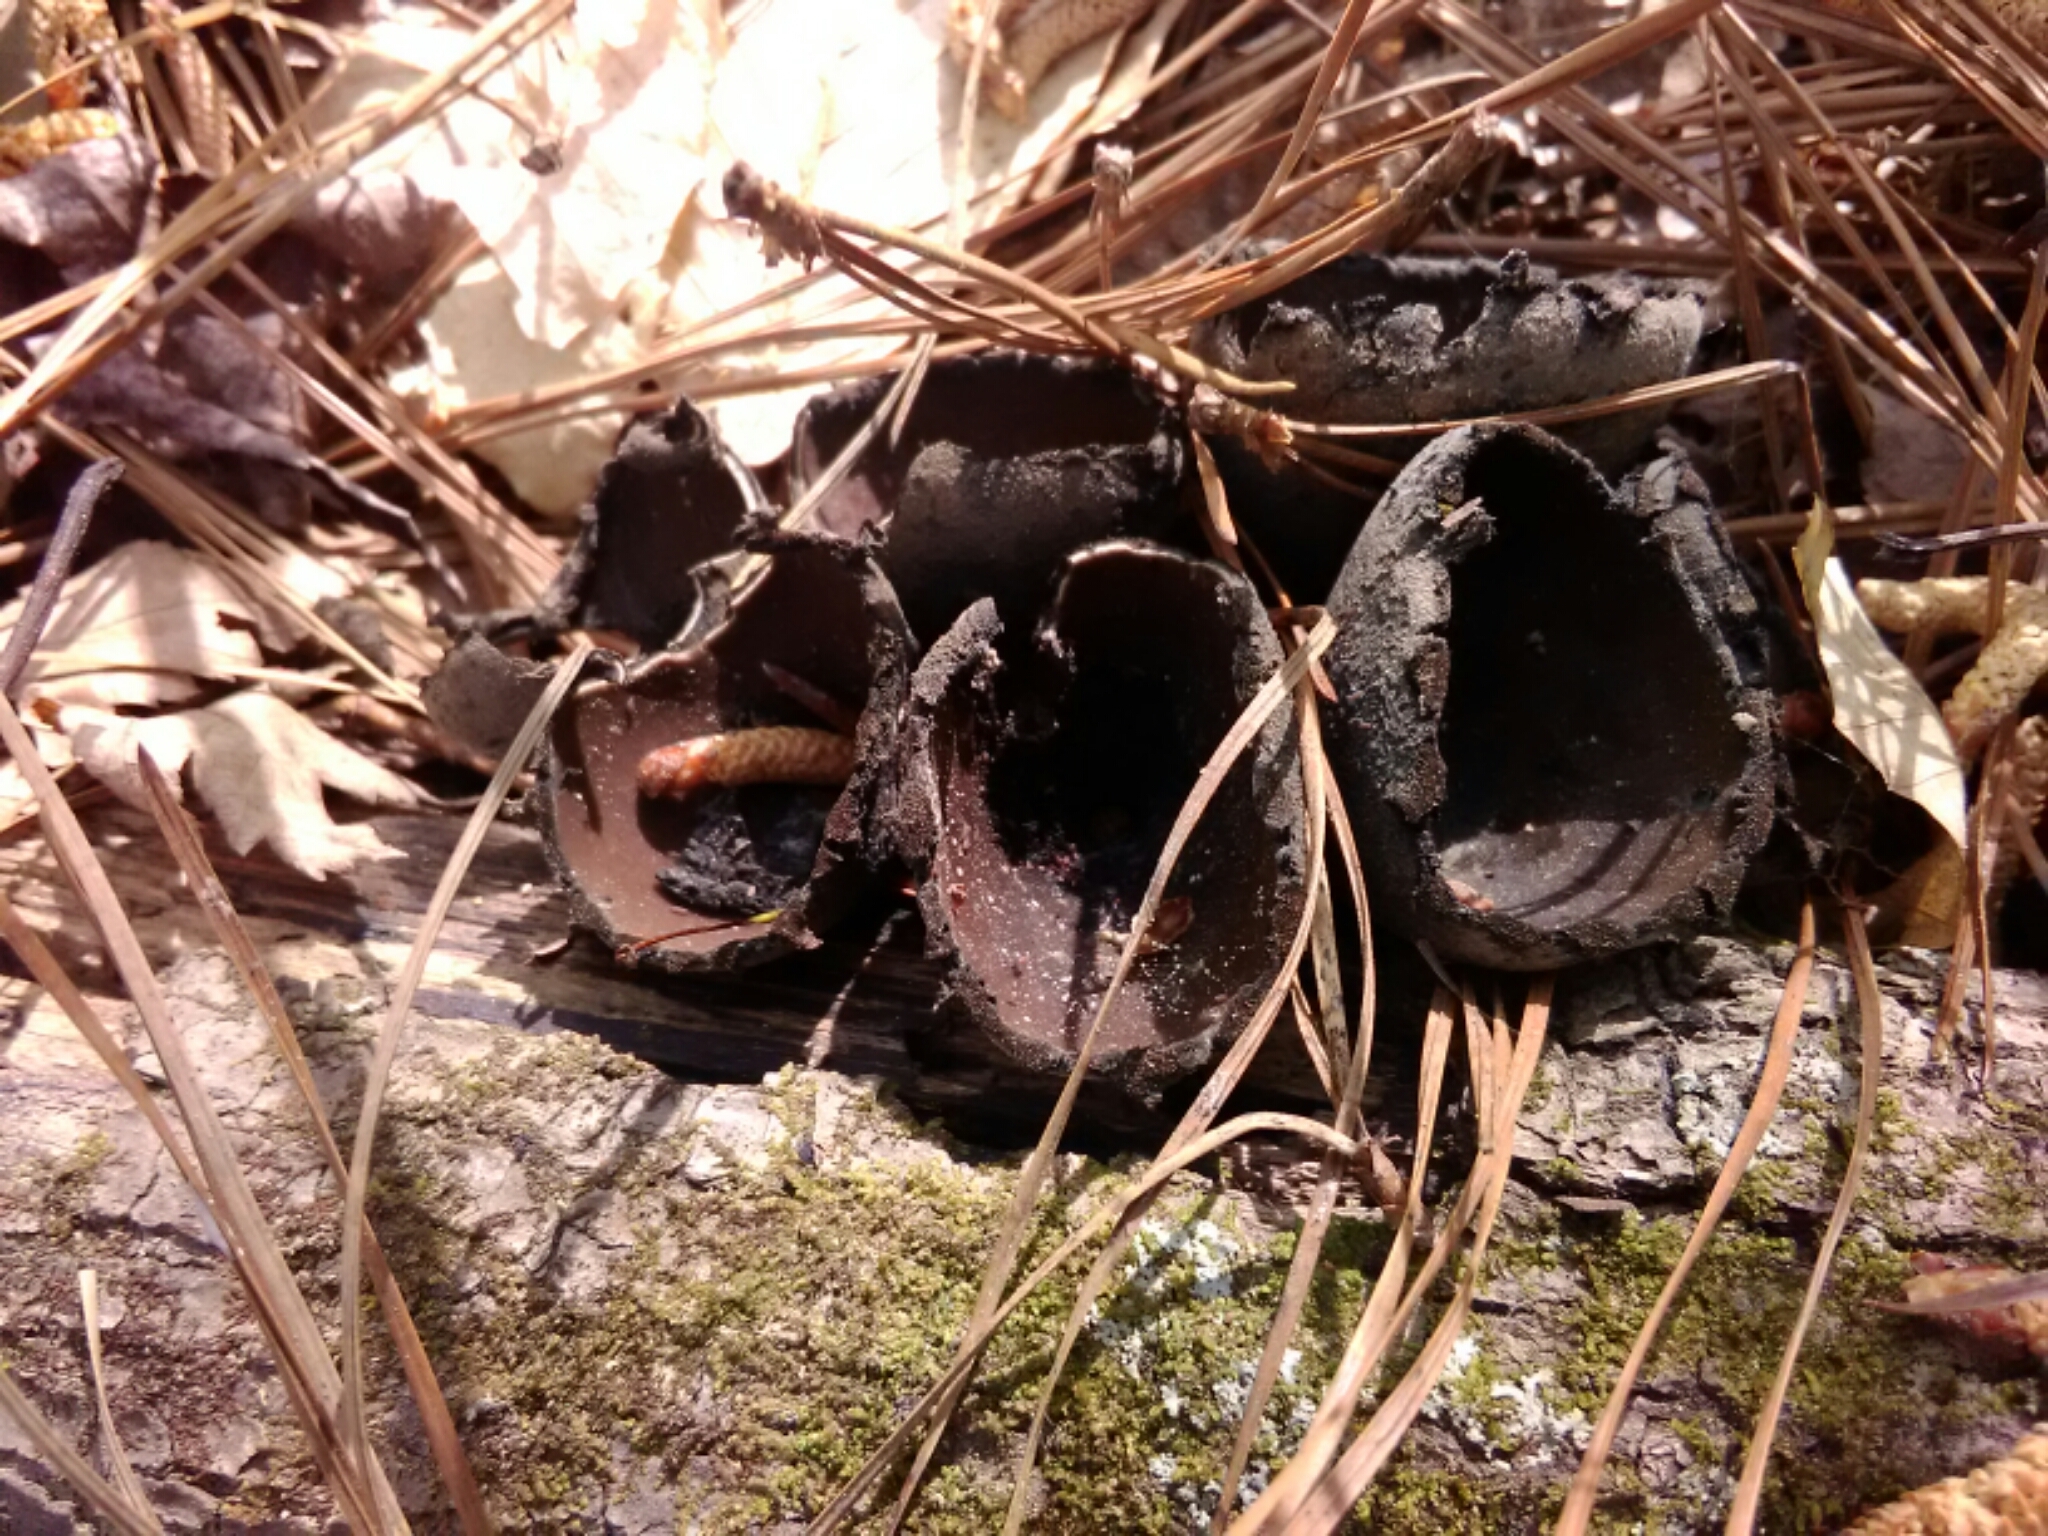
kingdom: Fungi
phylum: Ascomycota
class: Pezizomycetes
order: Pezizales
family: Sarcosomataceae
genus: Urnula
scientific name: Urnula craterium
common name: Devil's urn
